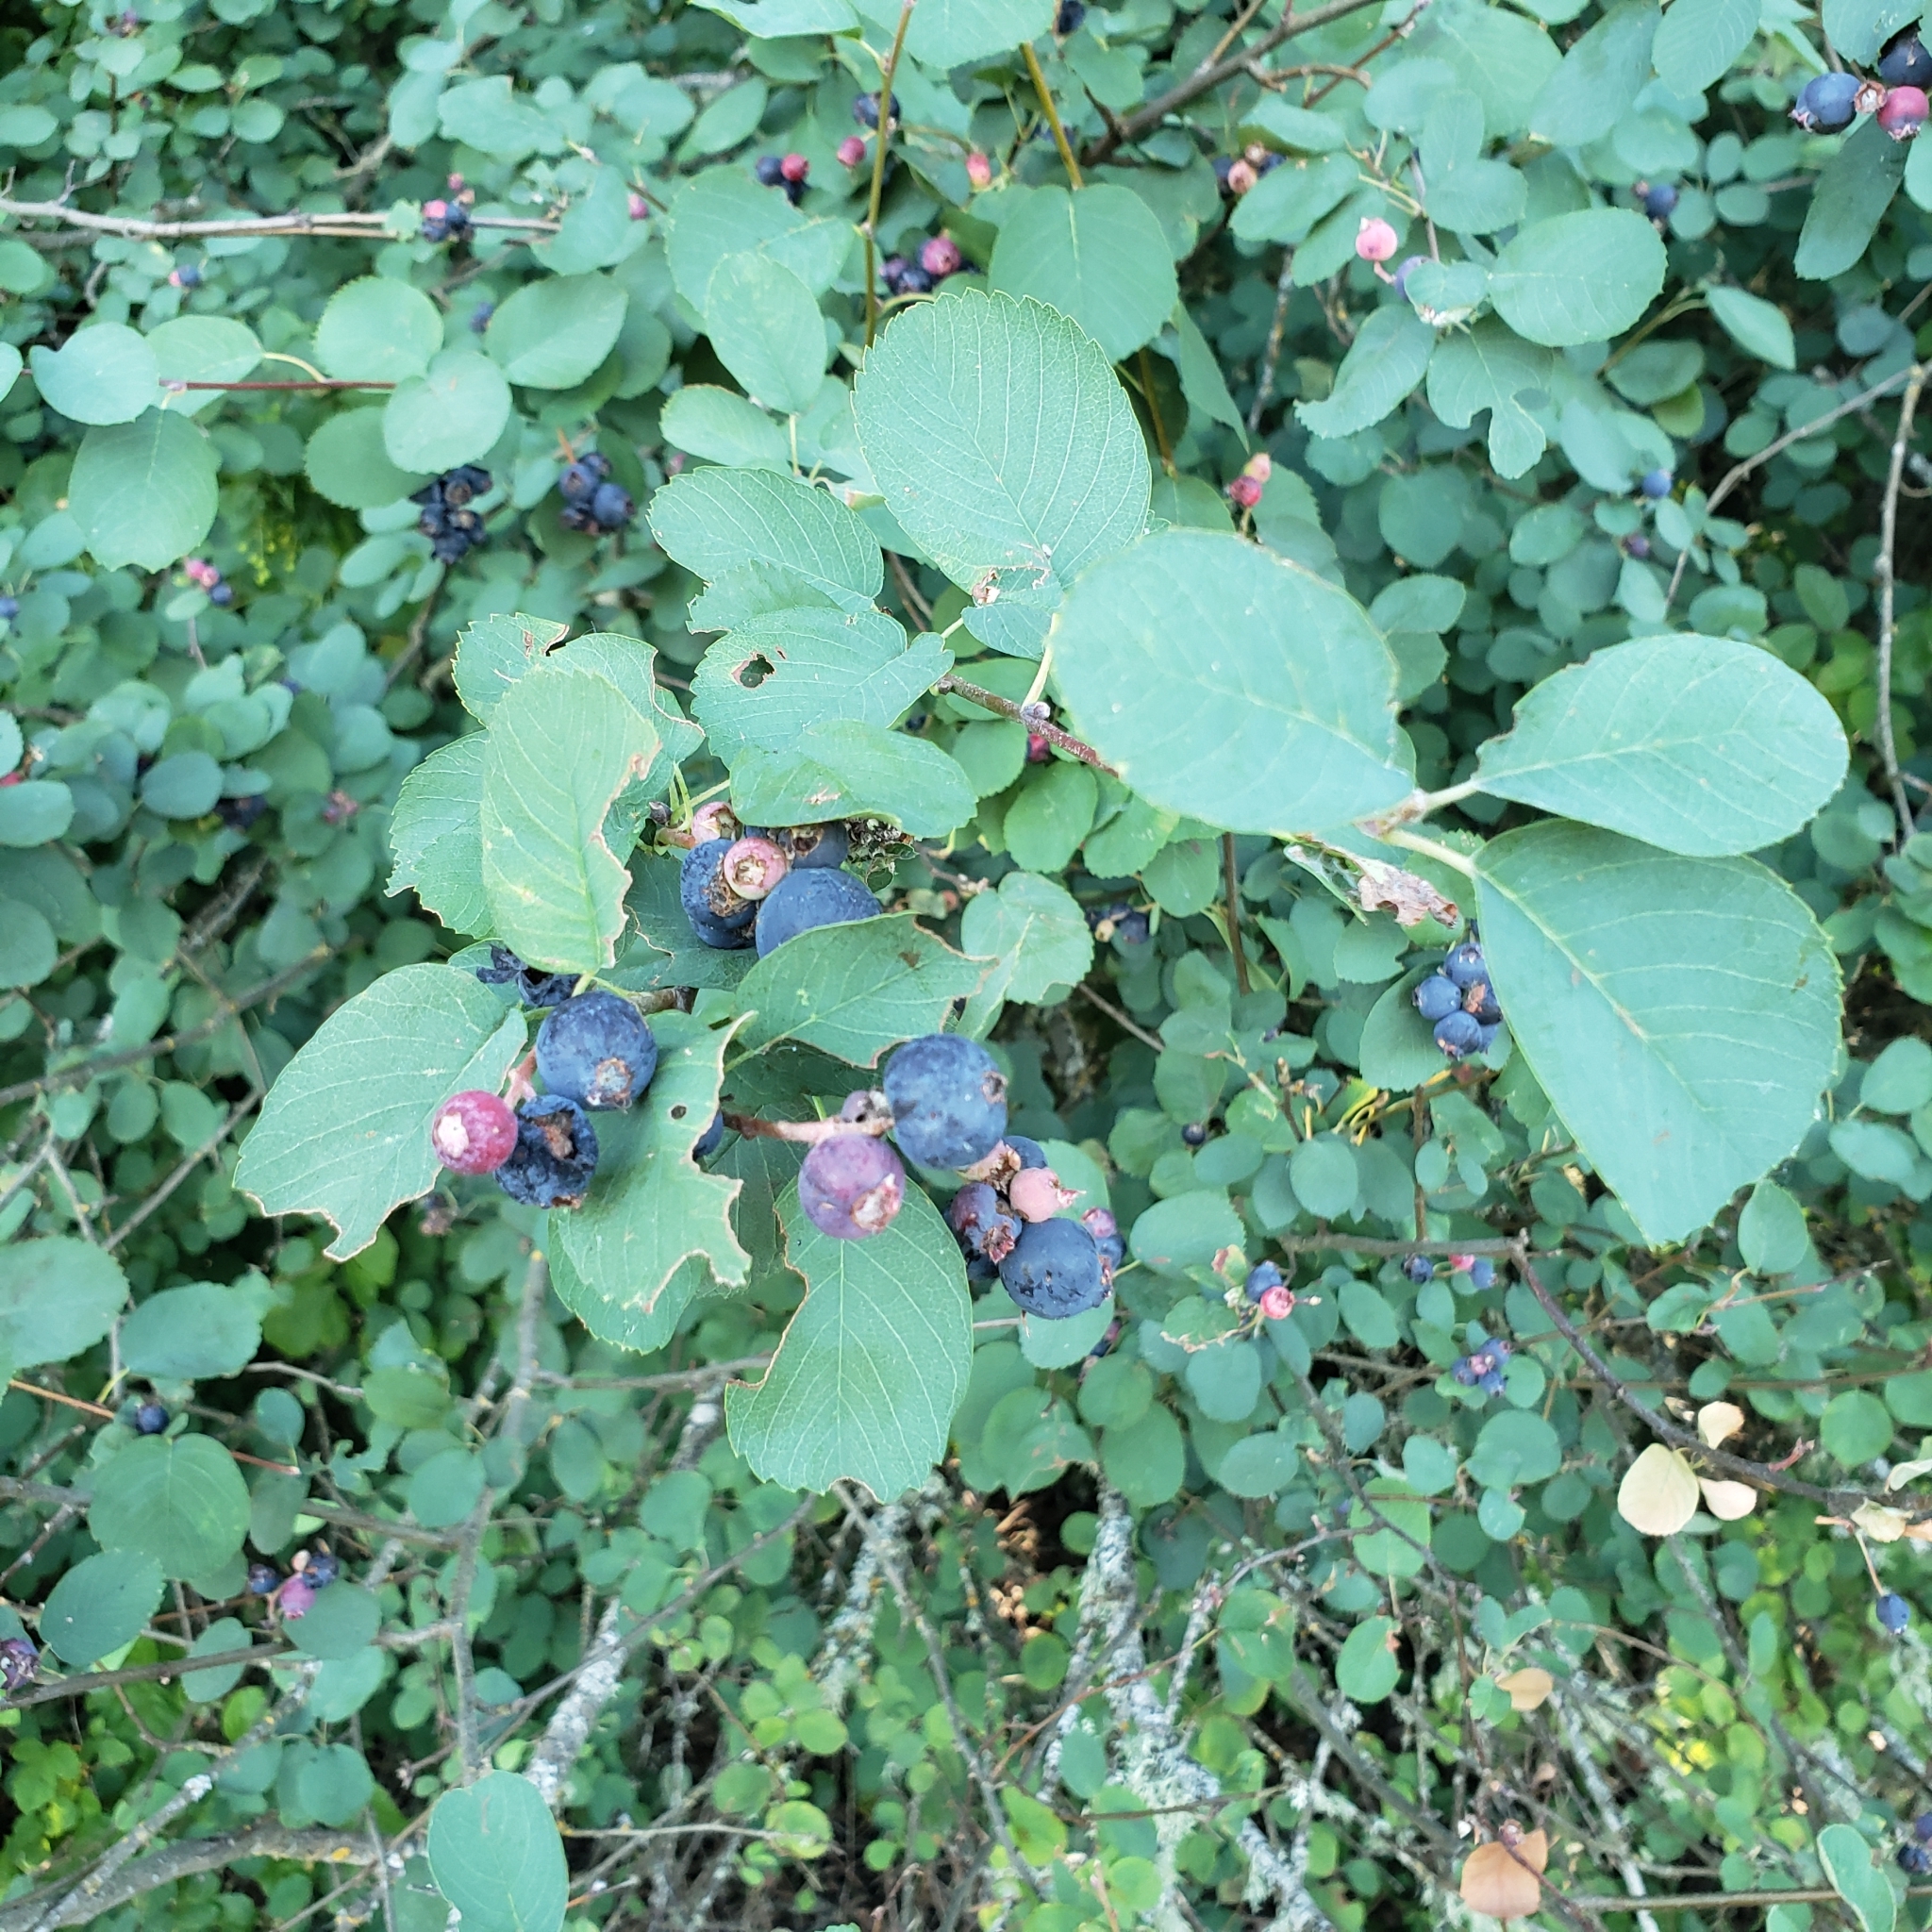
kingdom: Plantae
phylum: Tracheophyta
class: Magnoliopsida
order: Rosales
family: Rosaceae
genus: Amelanchier
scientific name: Amelanchier alnifolia
